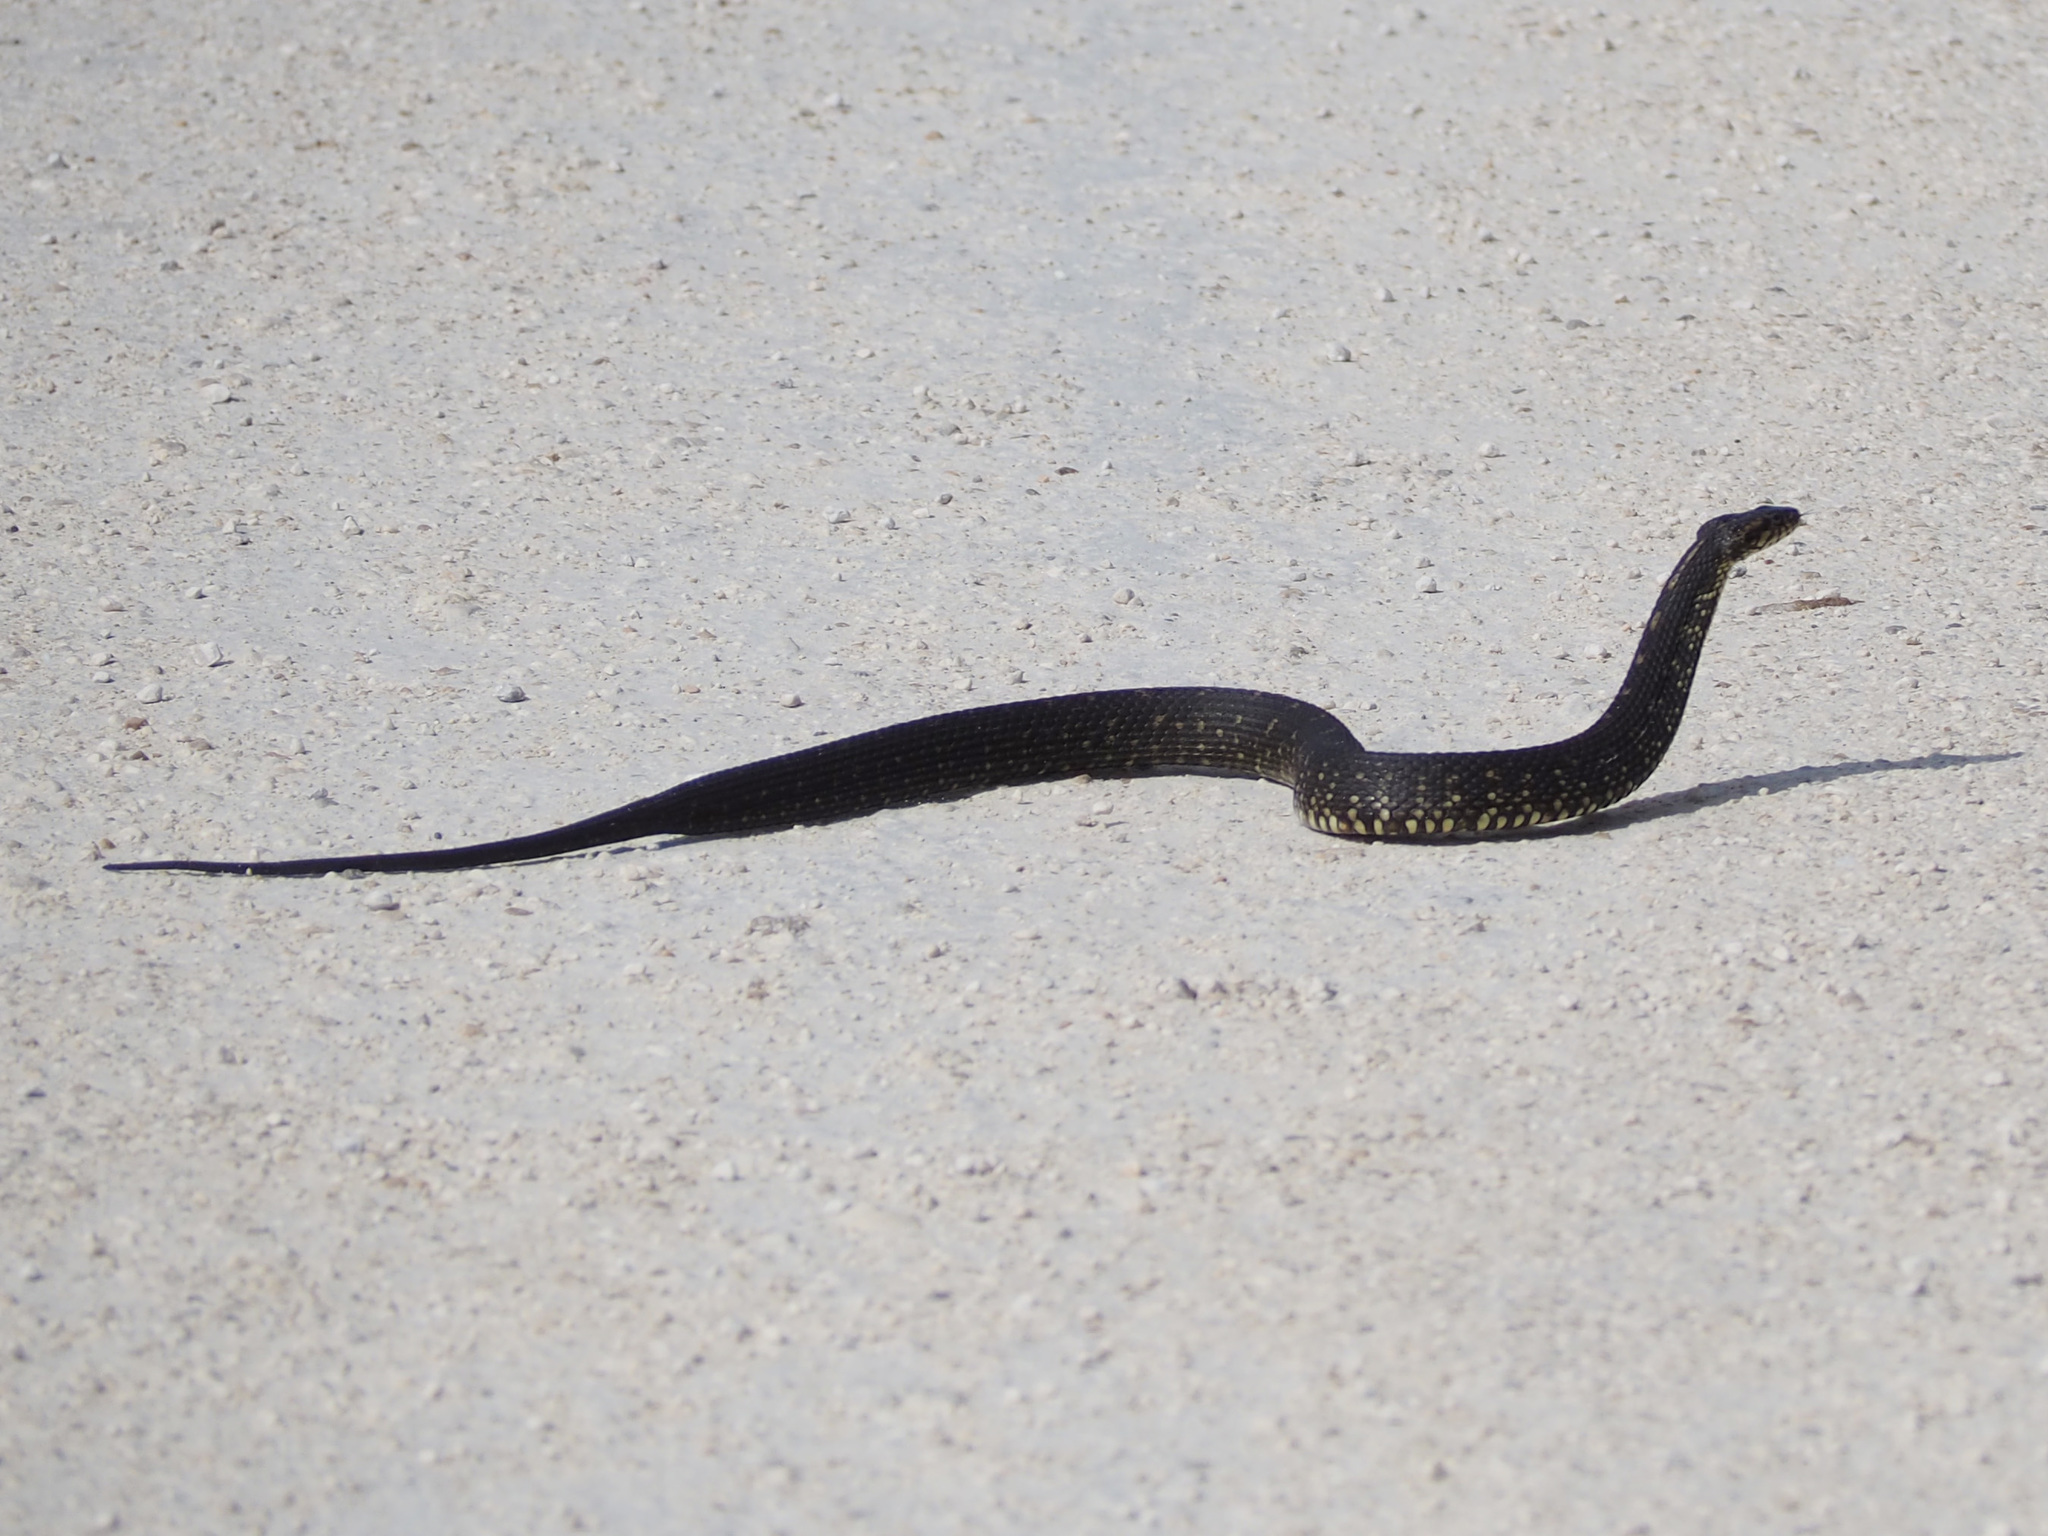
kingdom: Animalia
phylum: Chordata
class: Squamata
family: Colubridae
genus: Nerodia
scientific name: Nerodia fasciata
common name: Southern water snake
